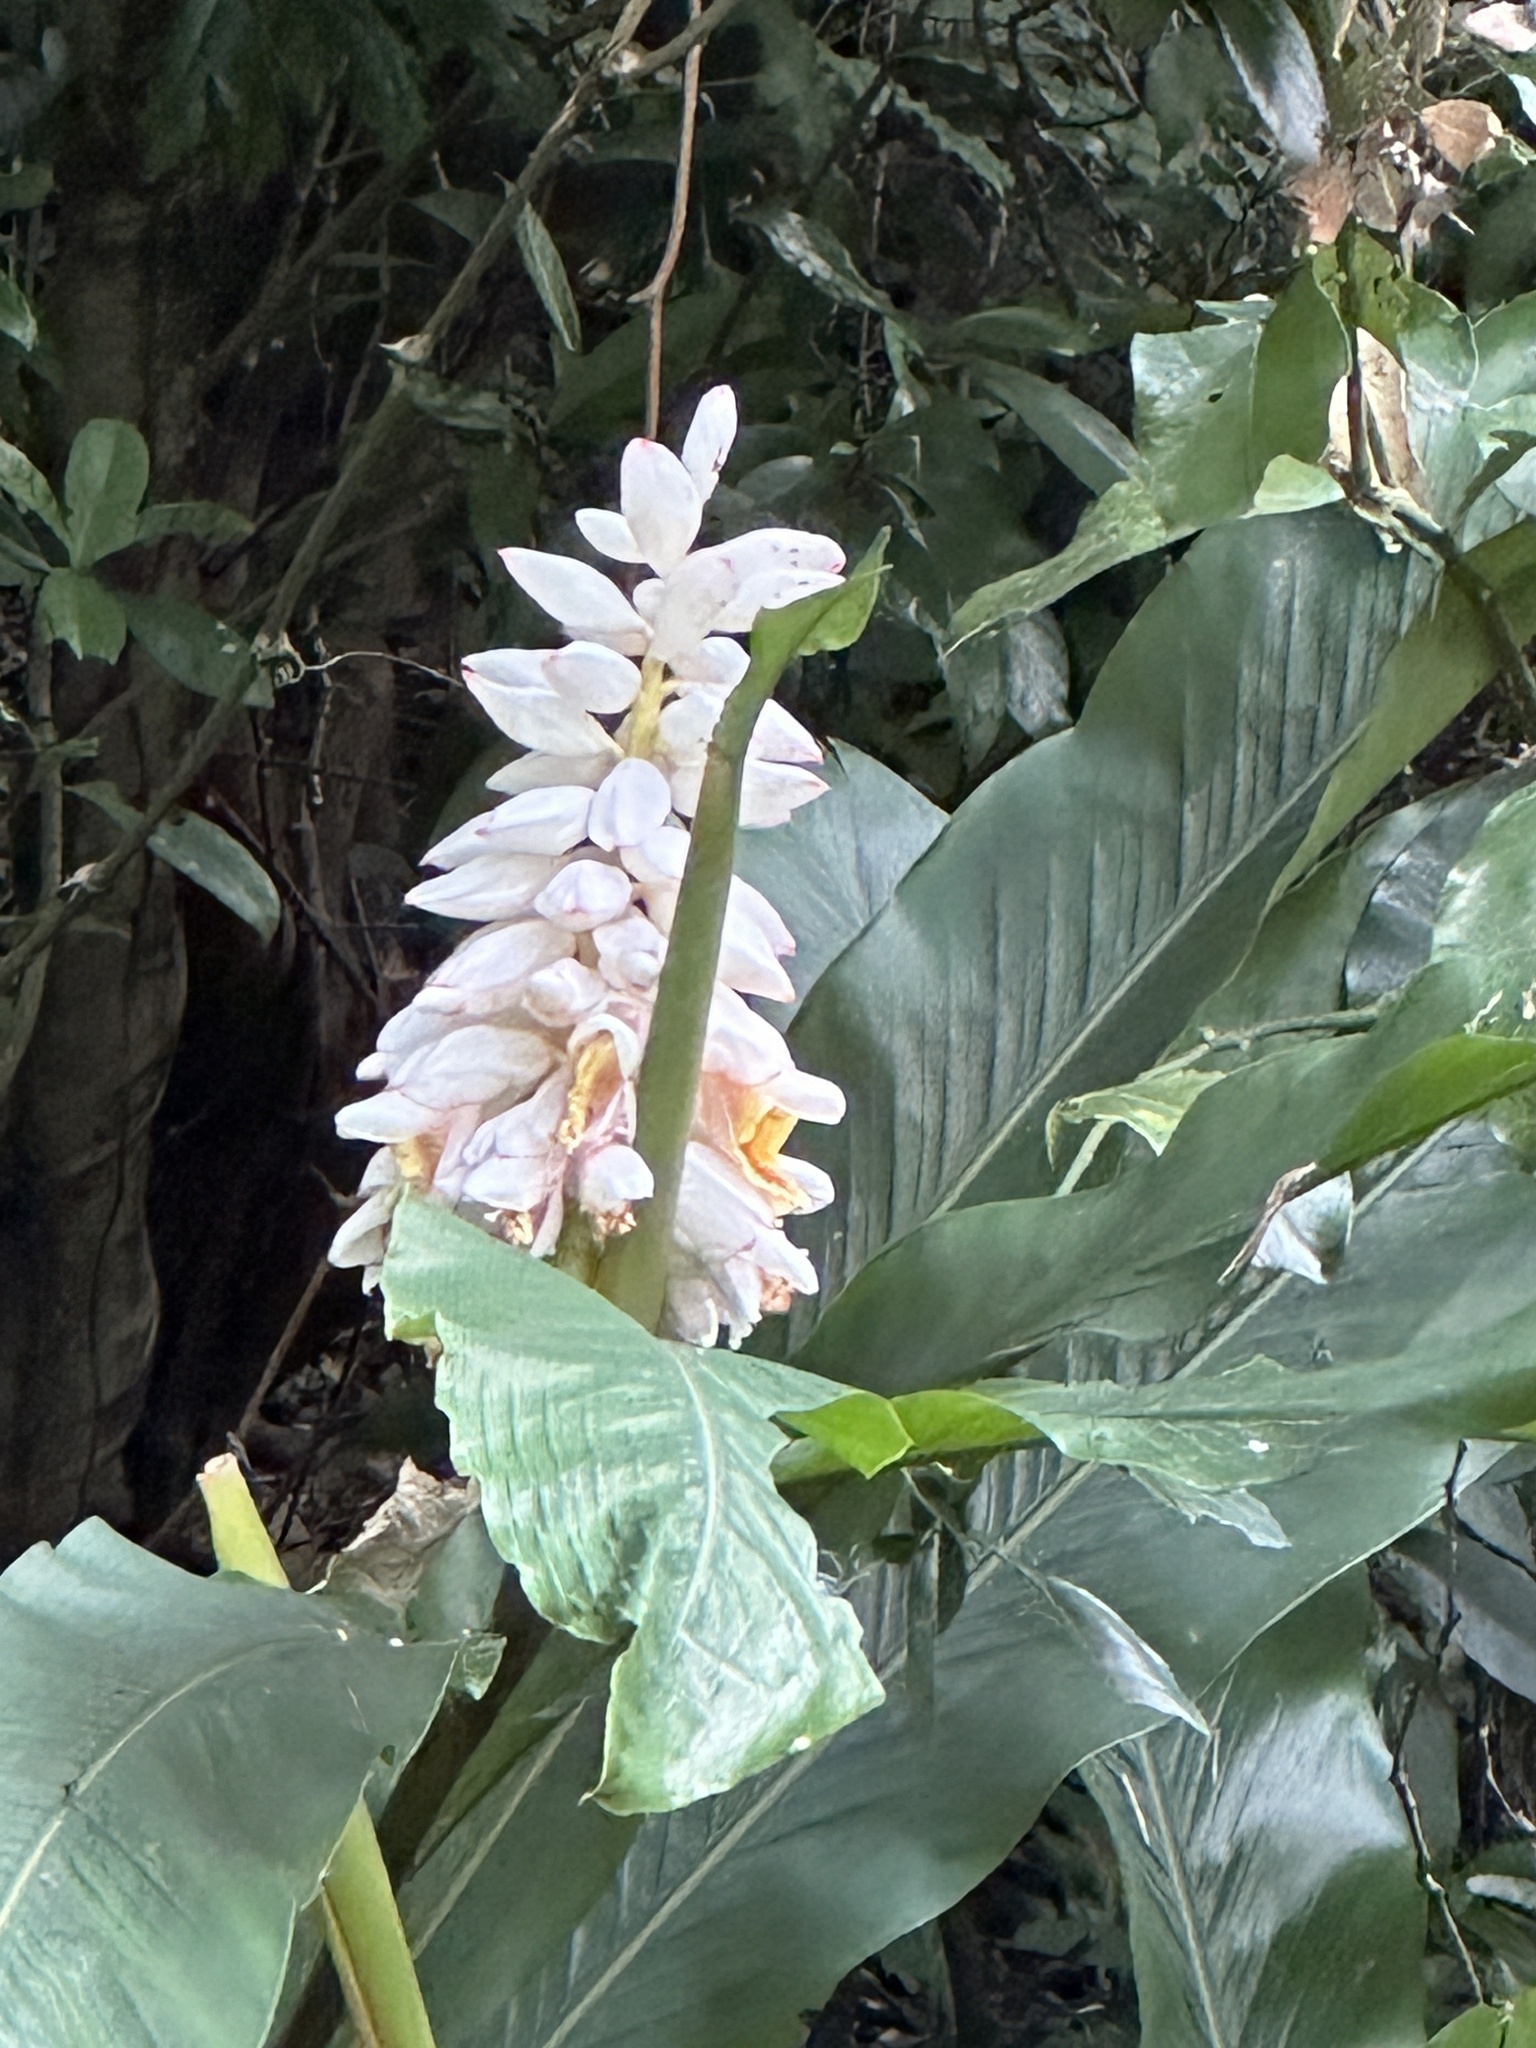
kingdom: Plantae
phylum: Tracheophyta
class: Liliopsida
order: Zingiberales
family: Zingiberaceae
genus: Alpinia
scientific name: Alpinia uraiensis
